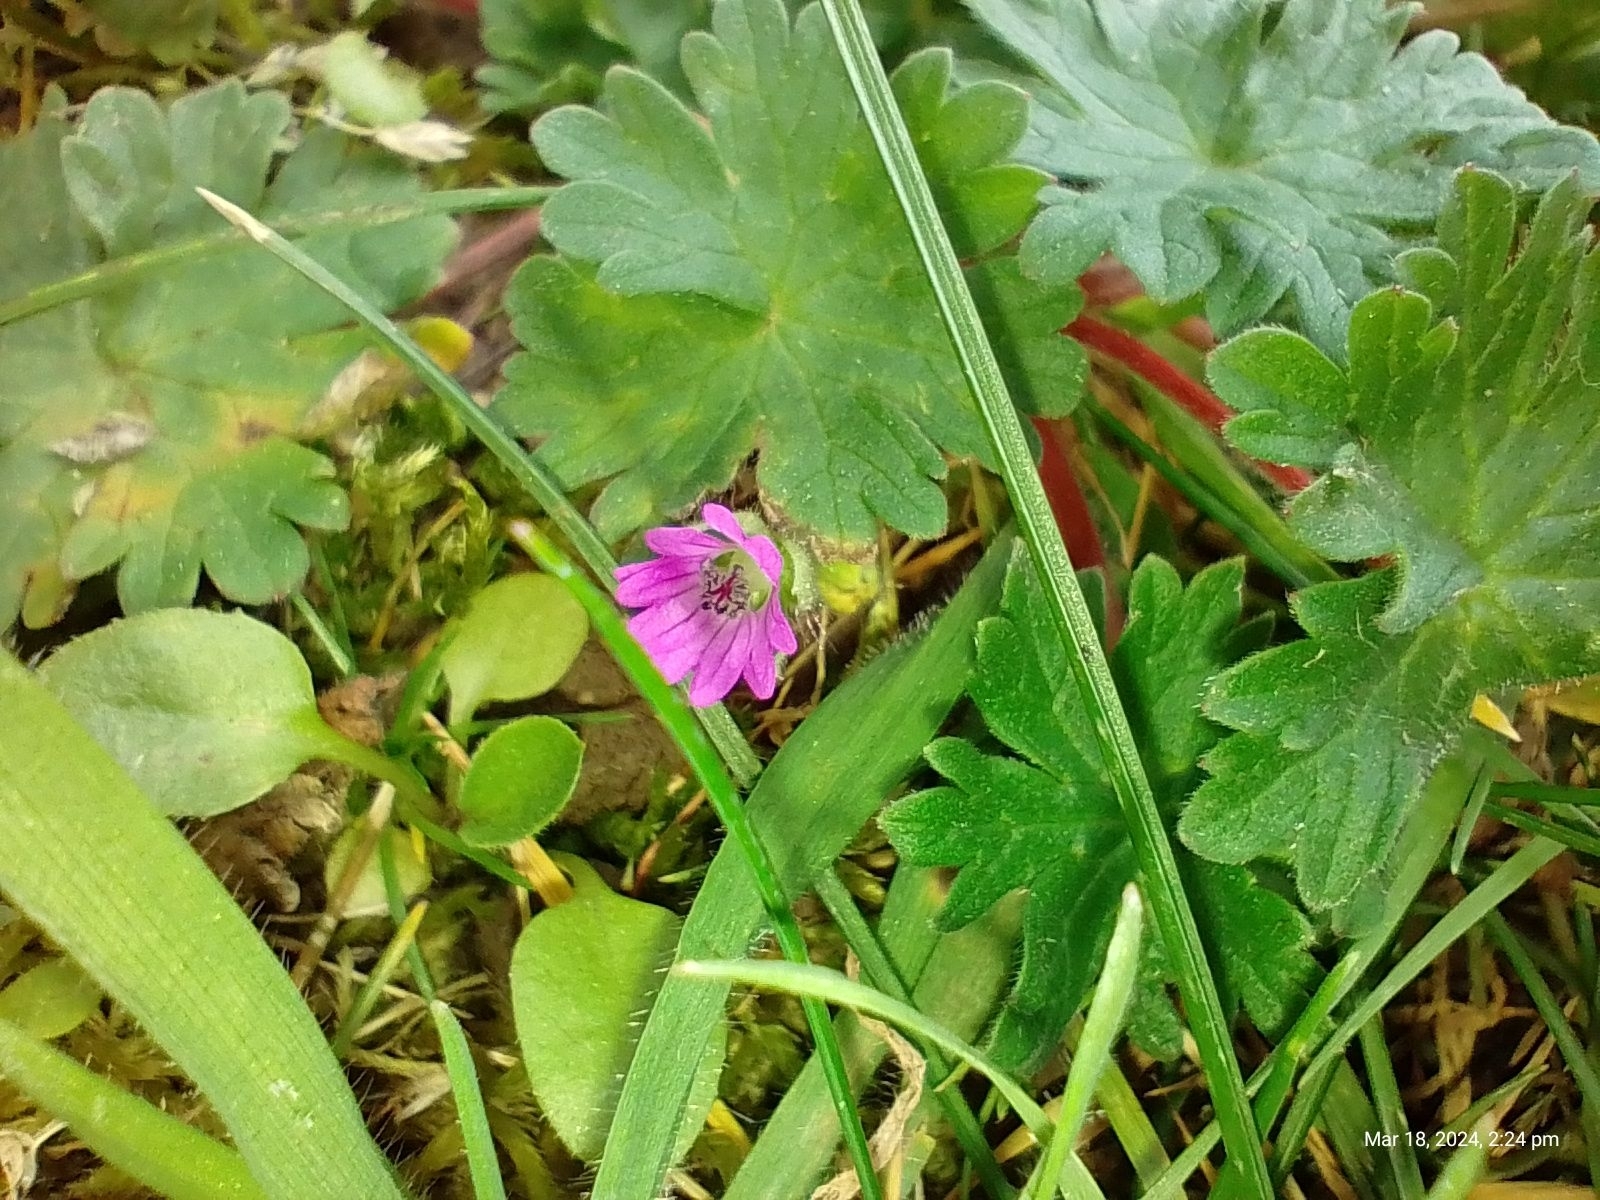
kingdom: Plantae
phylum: Tracheophyta
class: Magnoliopsida
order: Geraniales
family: Geraniaceae
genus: Geranium
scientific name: Geranium molle
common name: Dove's-foot crane's-bill
